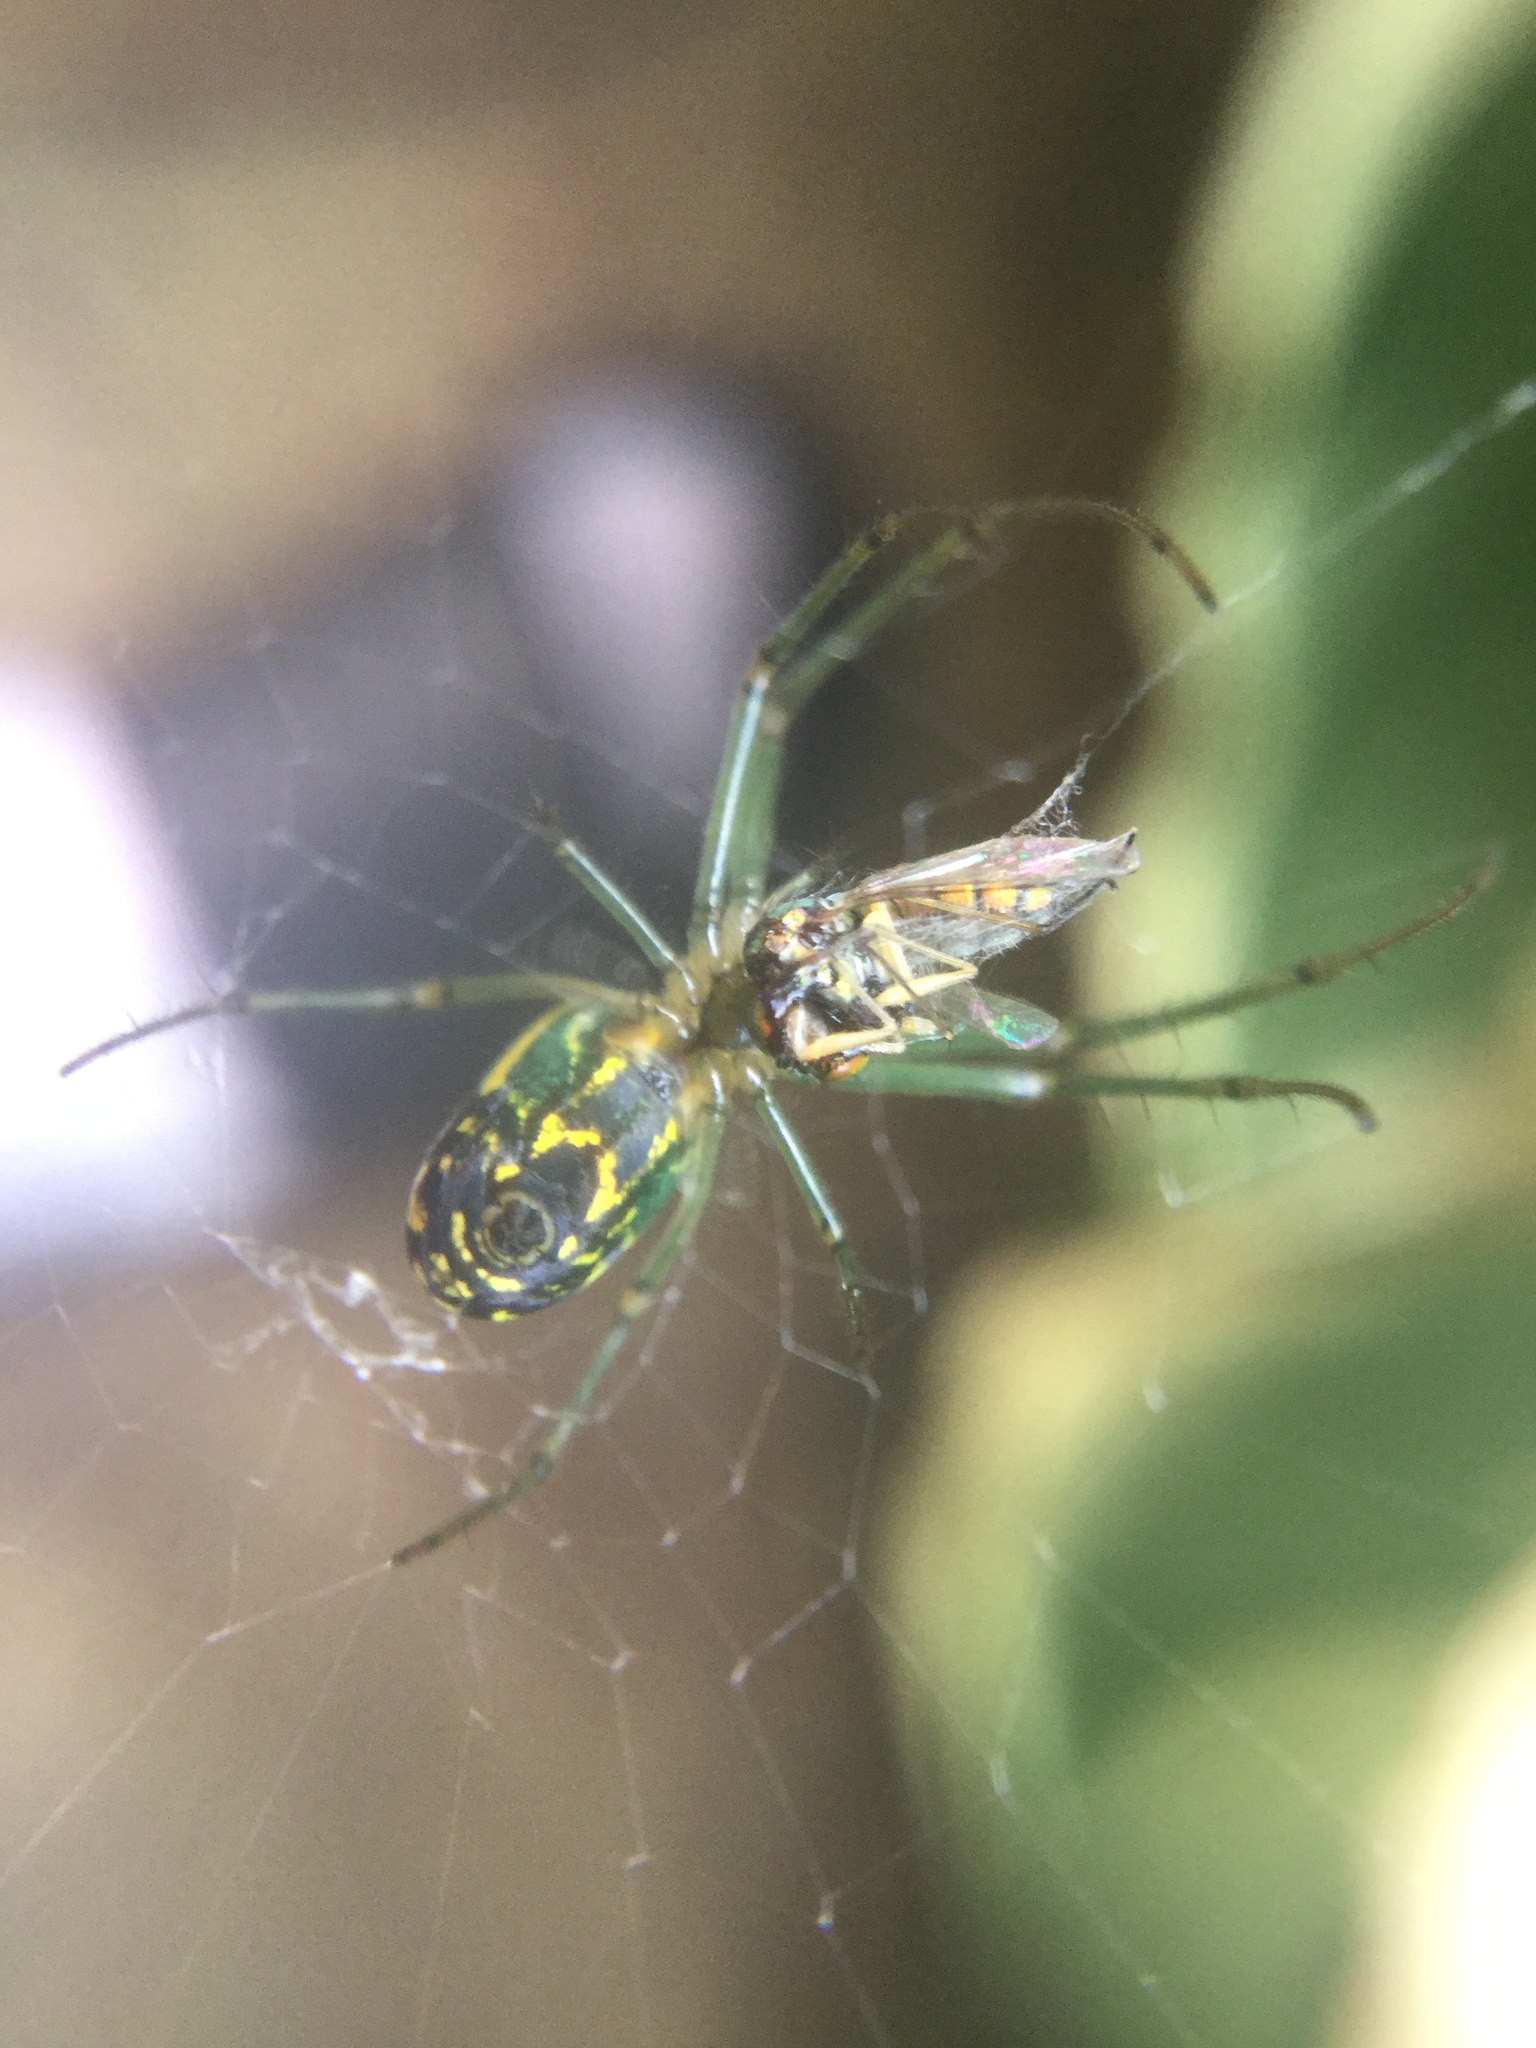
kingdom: Animalia
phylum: Arthropoda
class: Arachnida
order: Araneae
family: Tetragnathidae
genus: Leucauge
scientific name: Leucauge venusta
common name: Longjawed orb weavers
